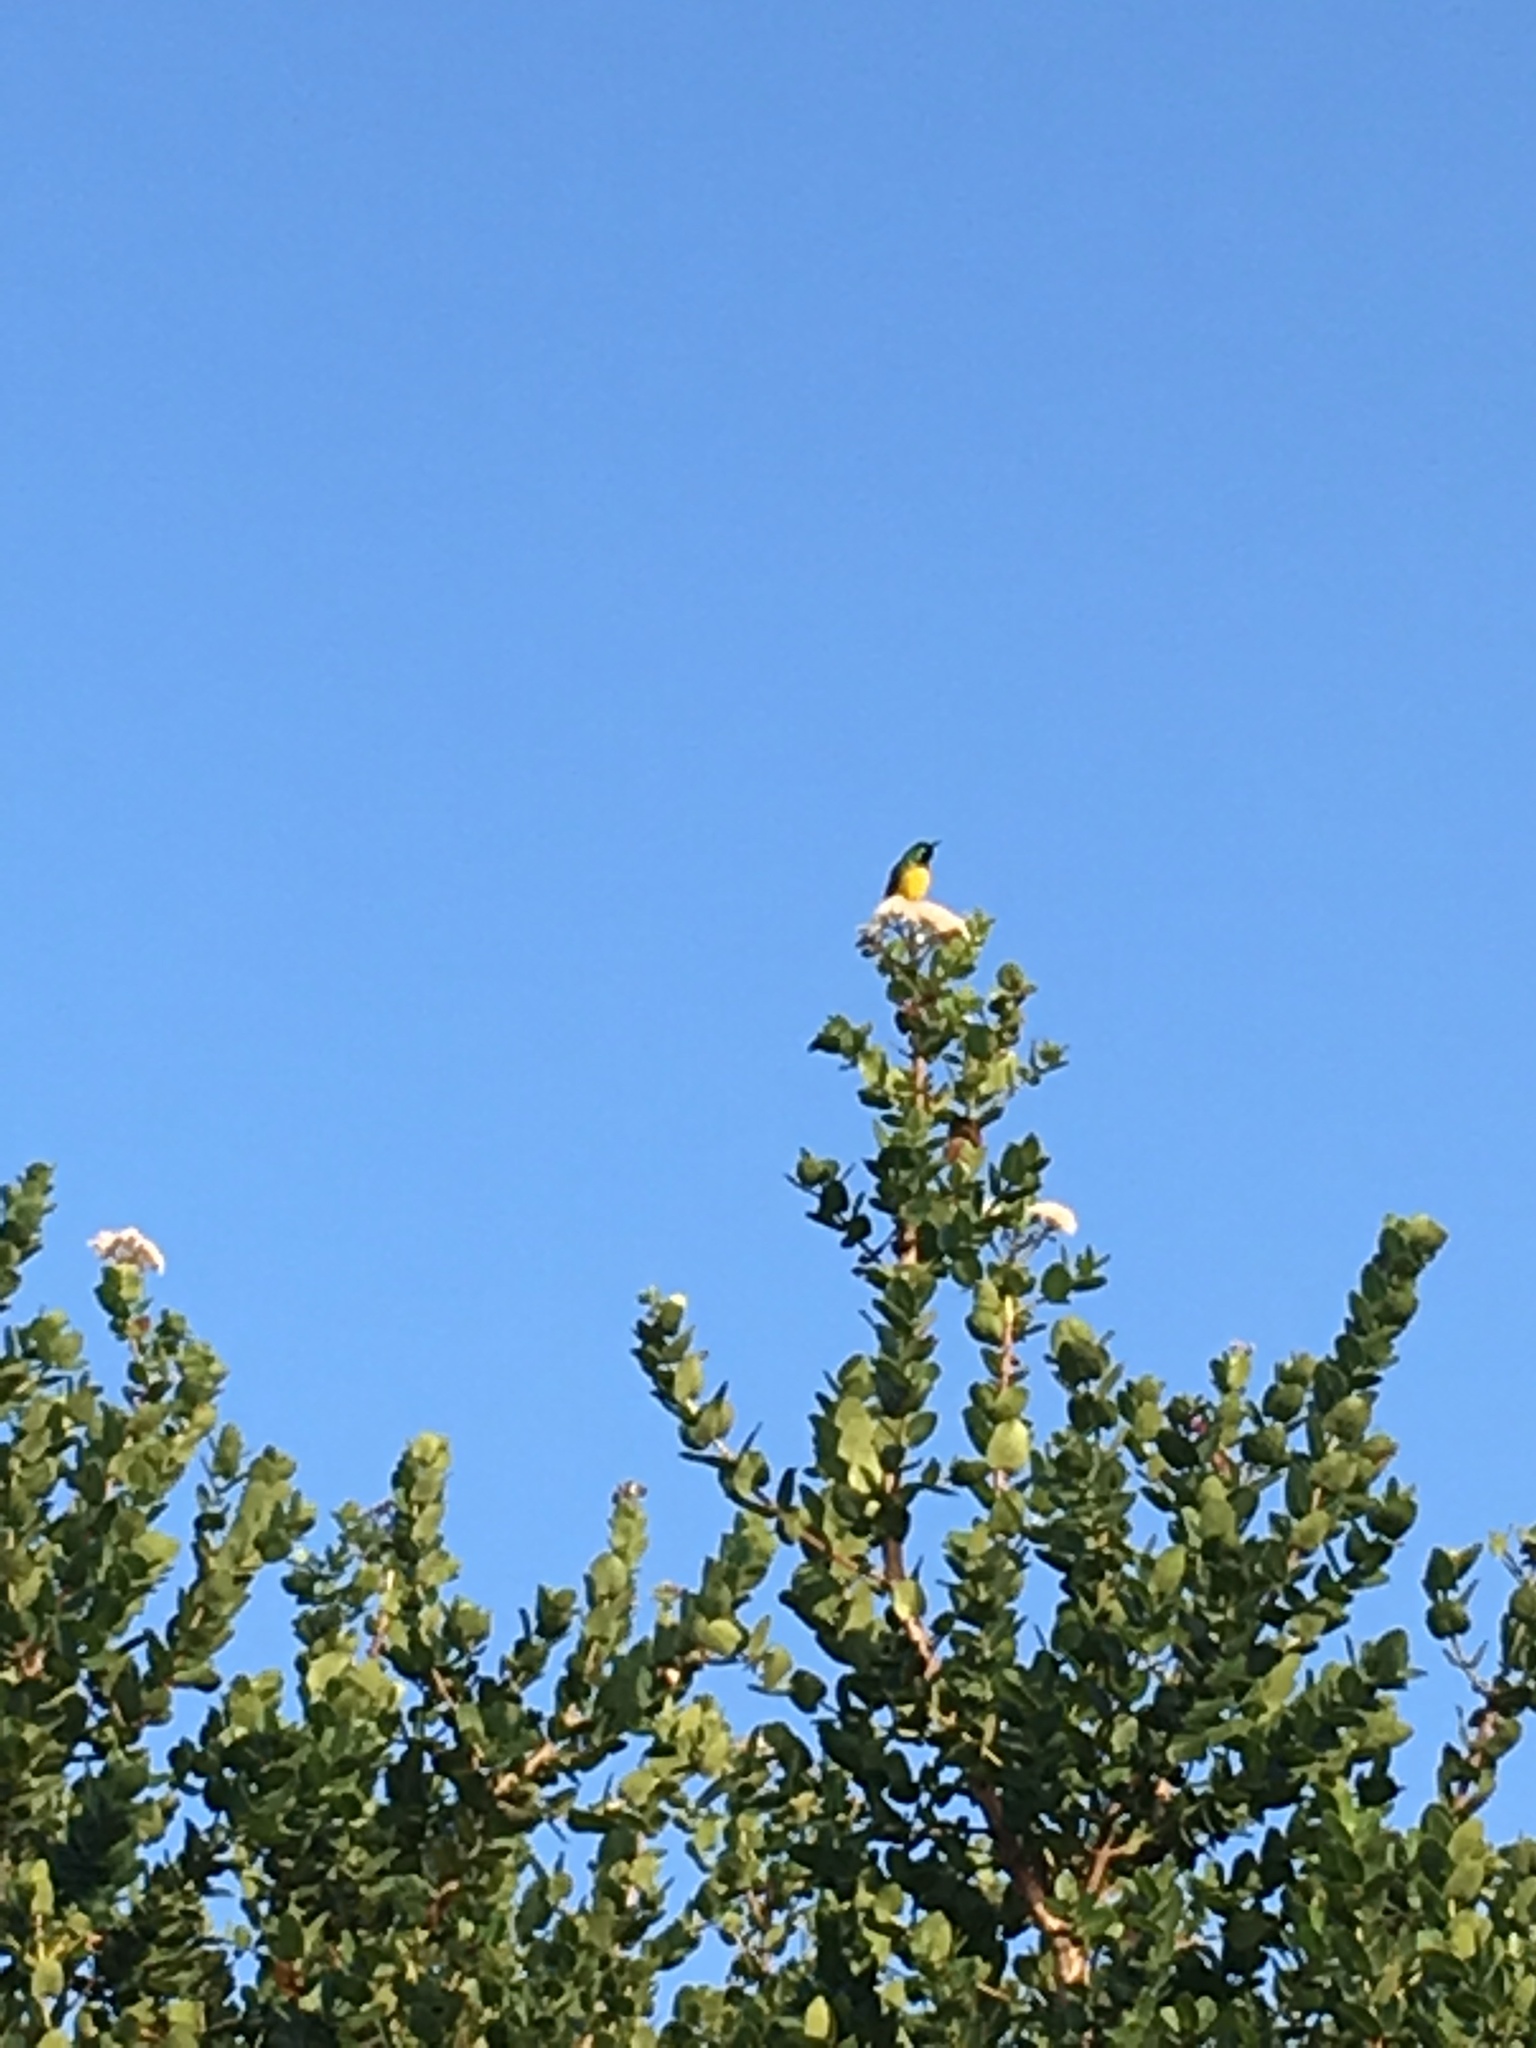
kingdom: Animalia
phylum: Chordata
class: Aves
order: Passeriformes
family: Nectariniidae
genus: Hedydipna
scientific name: Hedydipna collaris
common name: Collared sunbird
